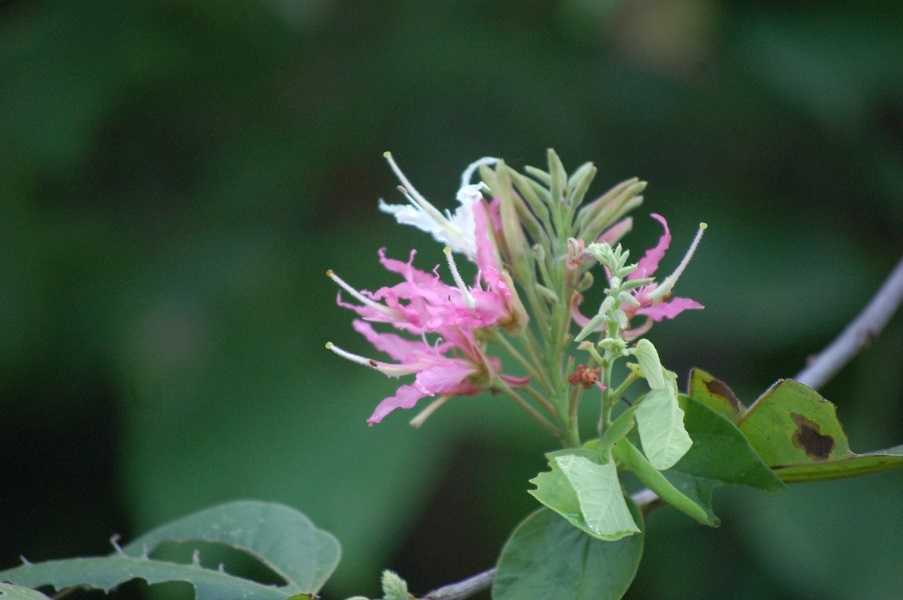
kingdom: Plantae
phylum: Tracheophyta
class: Magnoliopsida
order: Fabales
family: Fabaceae
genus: Bauhinia
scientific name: Bauhinia divaricata
